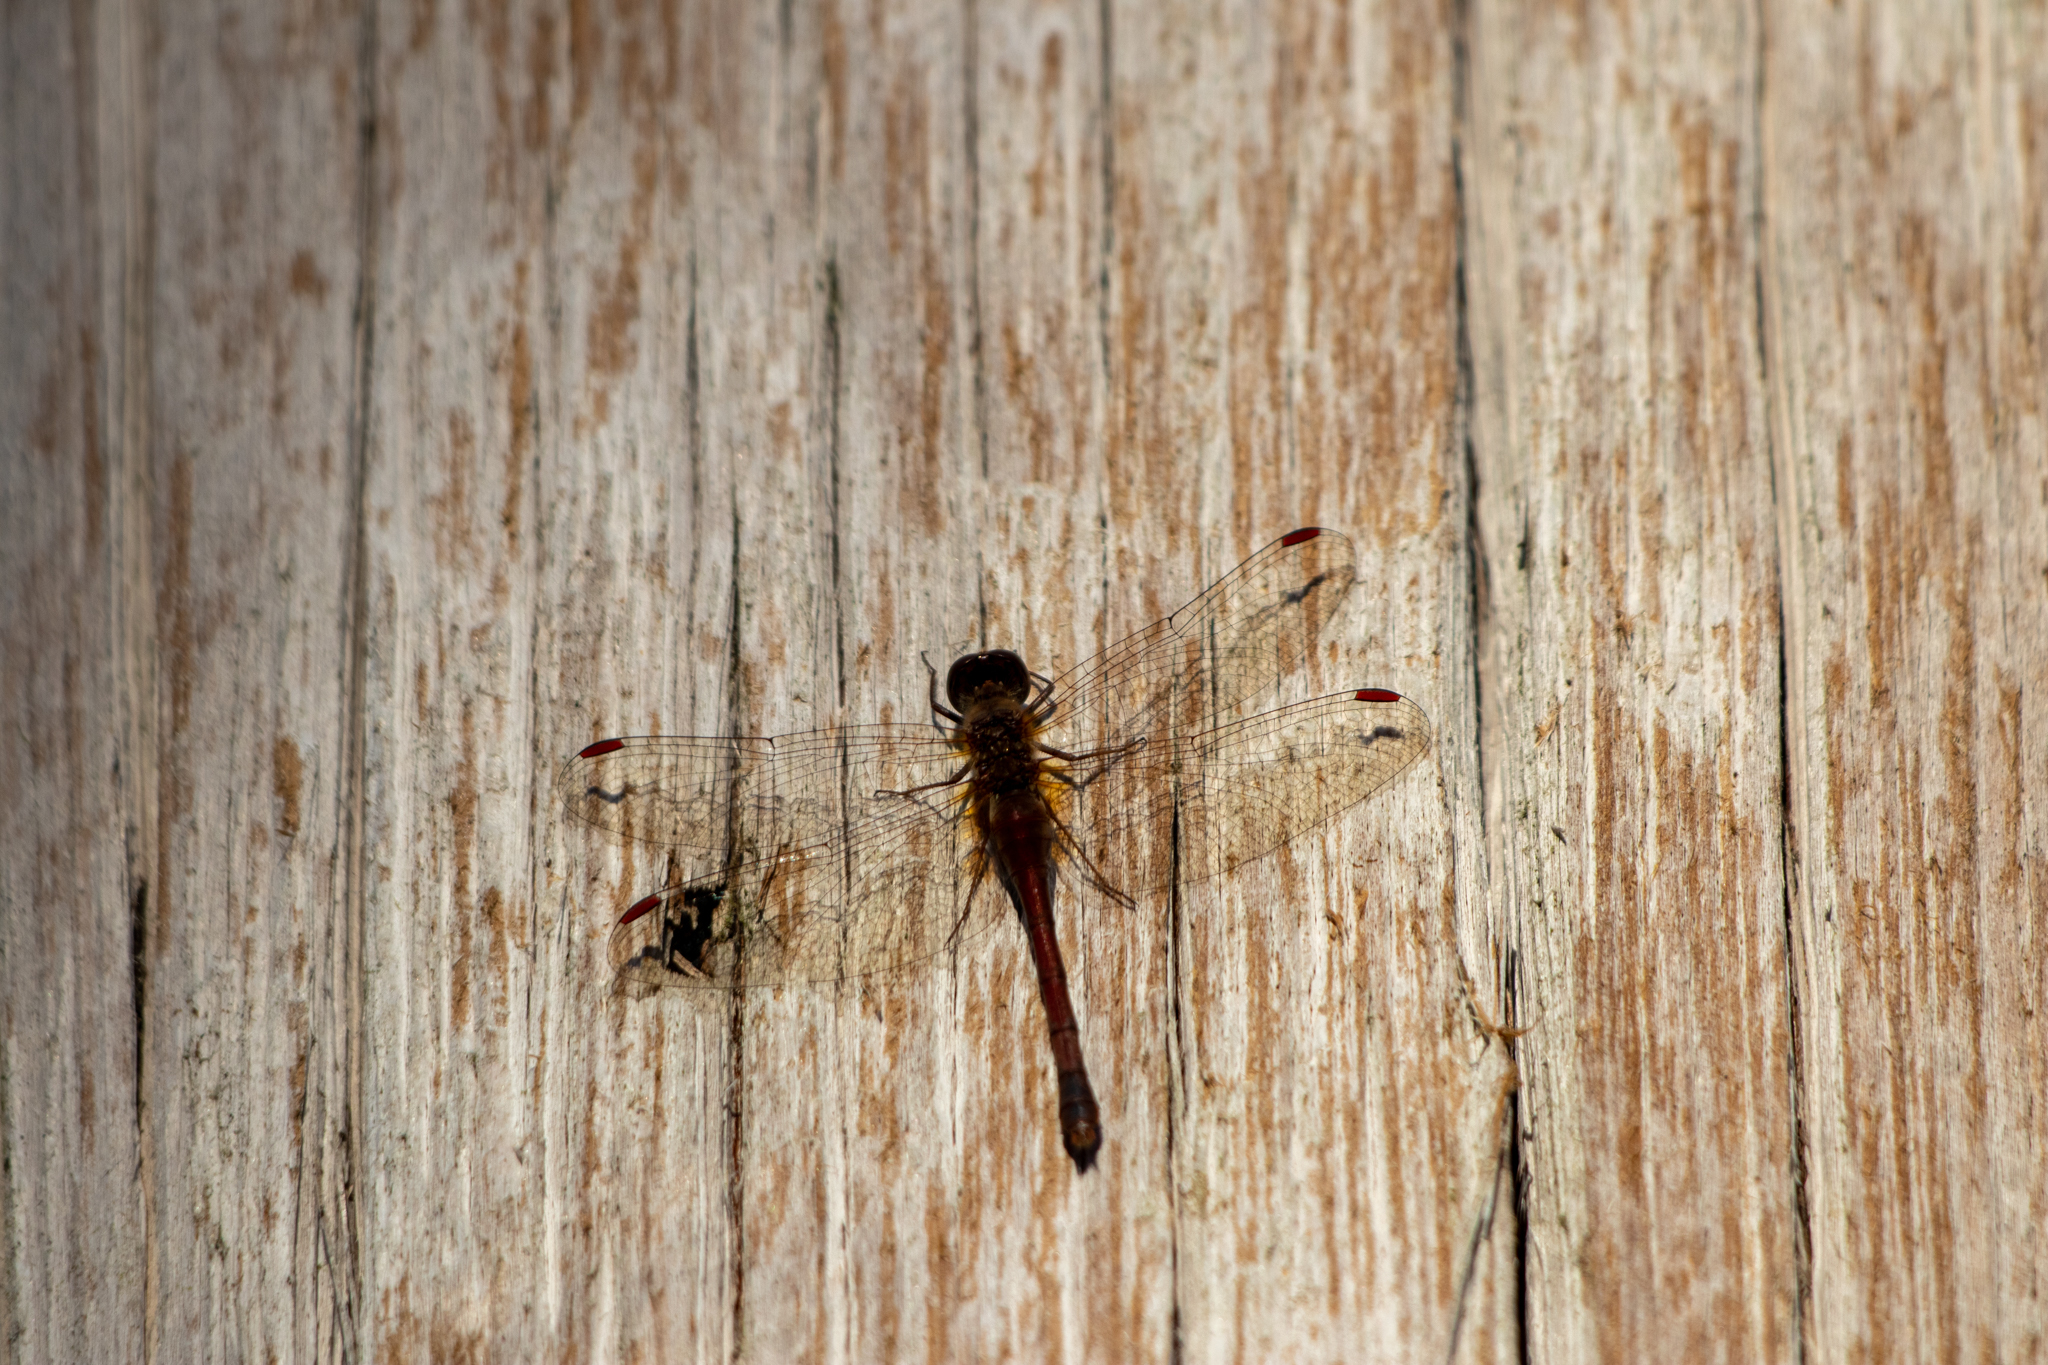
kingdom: Animalia
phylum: Arthropoda
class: Insecta
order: Odonata
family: Libellulidae
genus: Sympetrum
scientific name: Sympetrum vicinum
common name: Autumn meadowhawk
